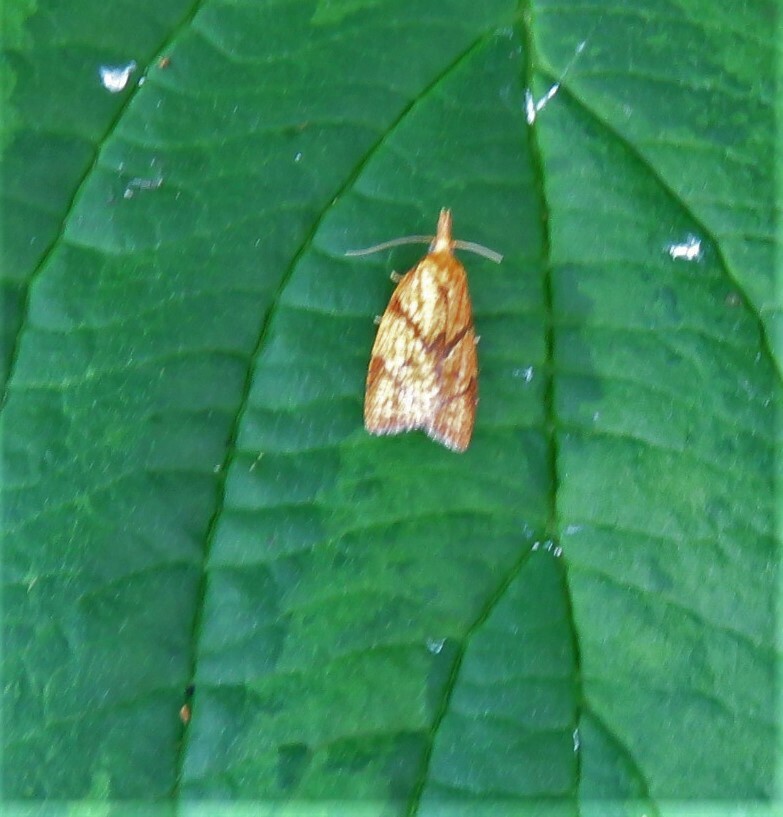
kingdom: Animalia
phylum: Arthropoda
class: Insecta
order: Lepidoptera
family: Tortricidae
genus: Cenopis
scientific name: Cenopis reticulatana
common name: Reticulated fruitworm moth
